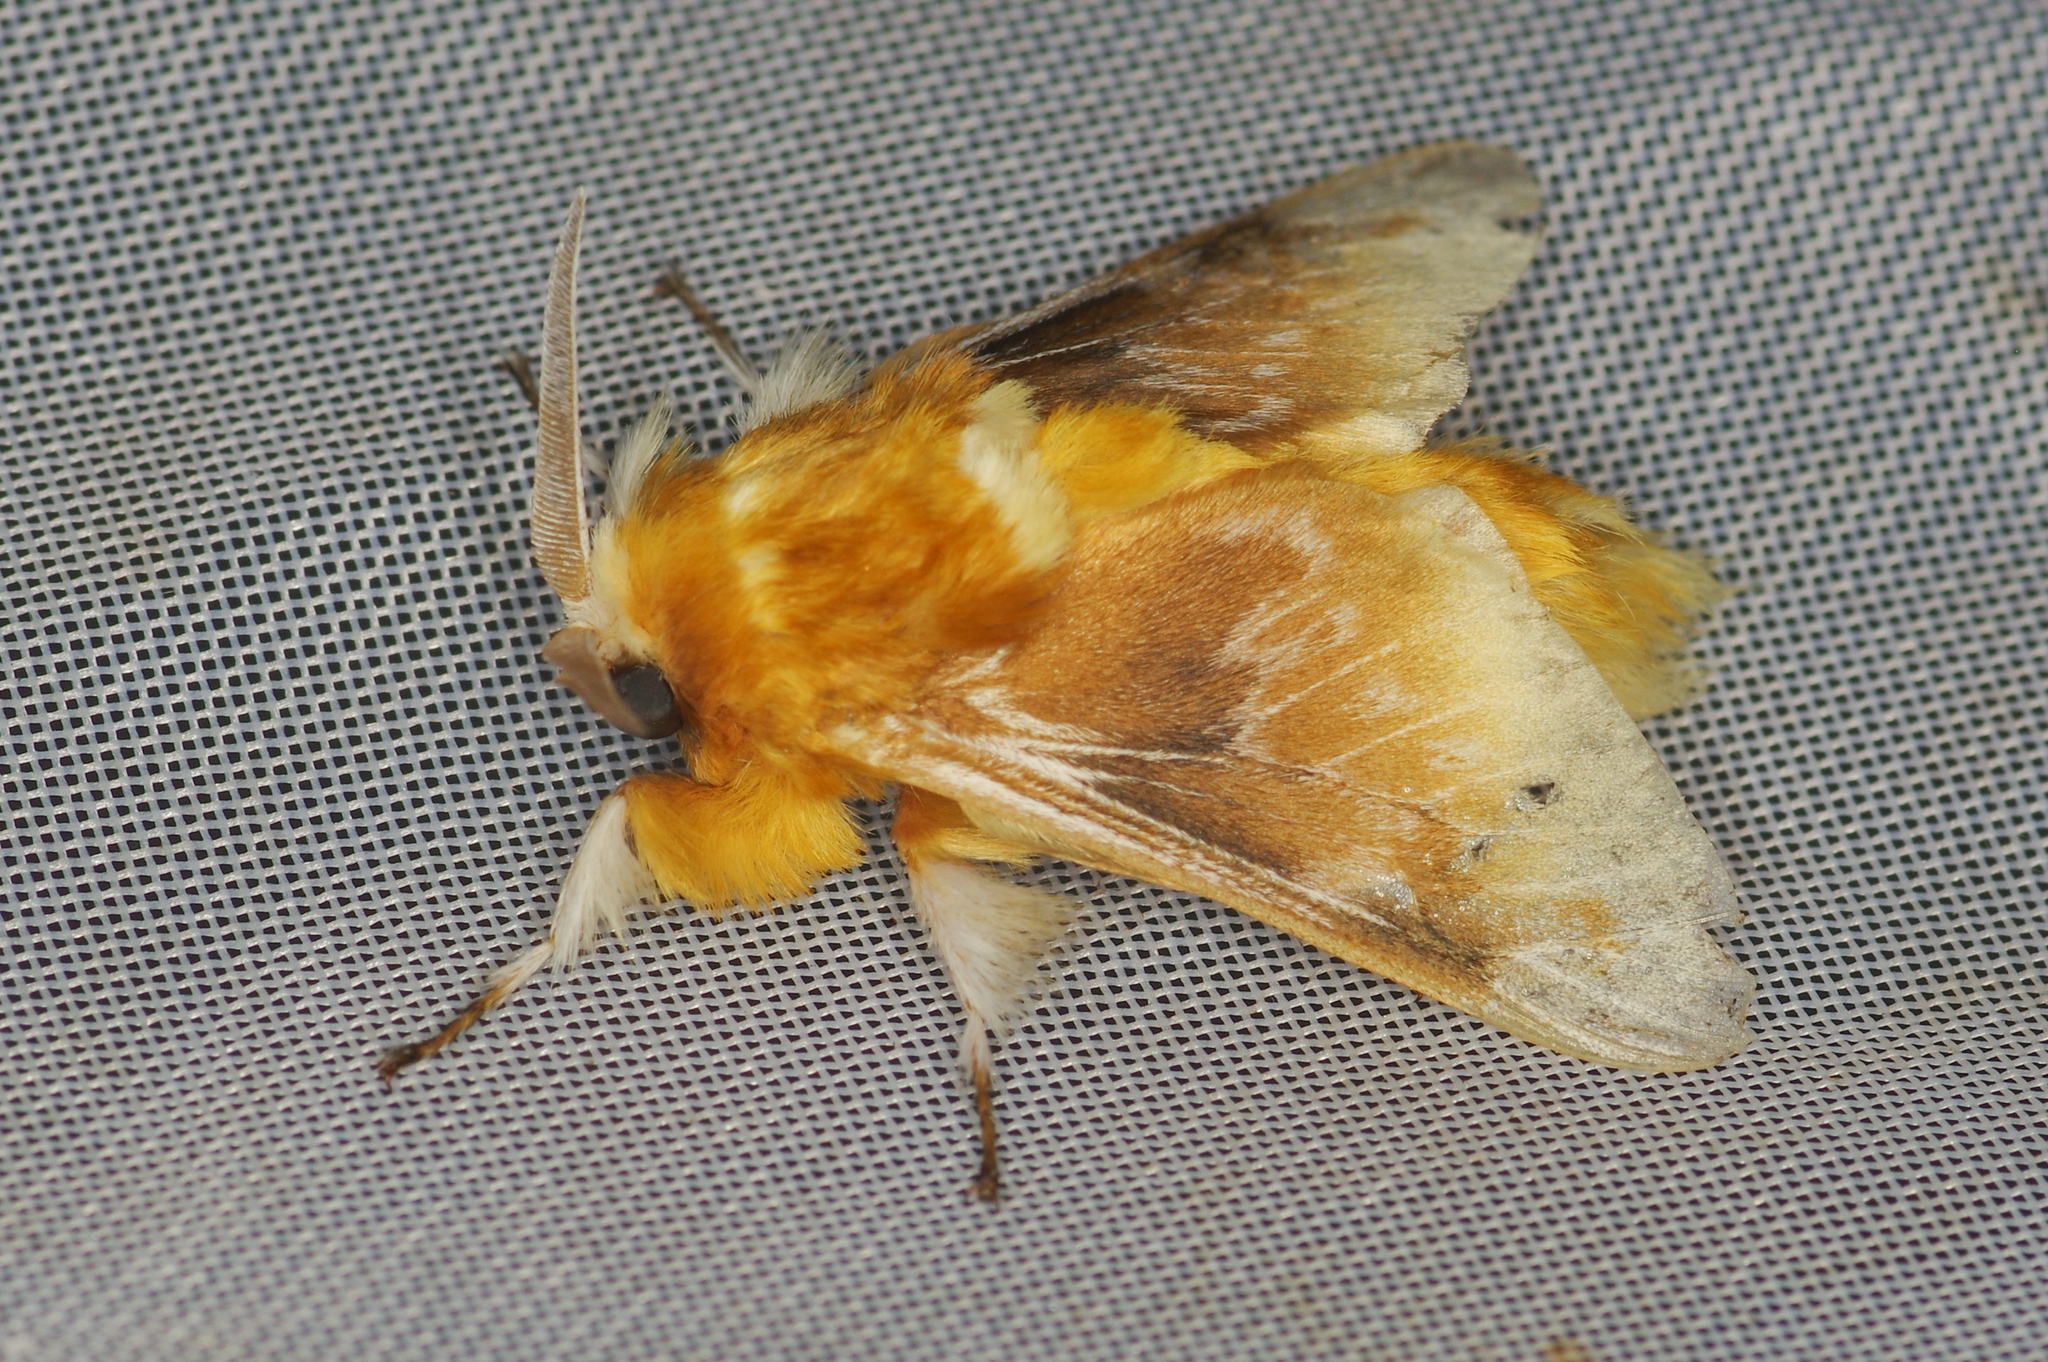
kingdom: Animalia
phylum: Arthropoda
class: Insecta
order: Lepidoptera
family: Megalopygidae
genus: Megalopyge
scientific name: Megalopyge megalopygae
